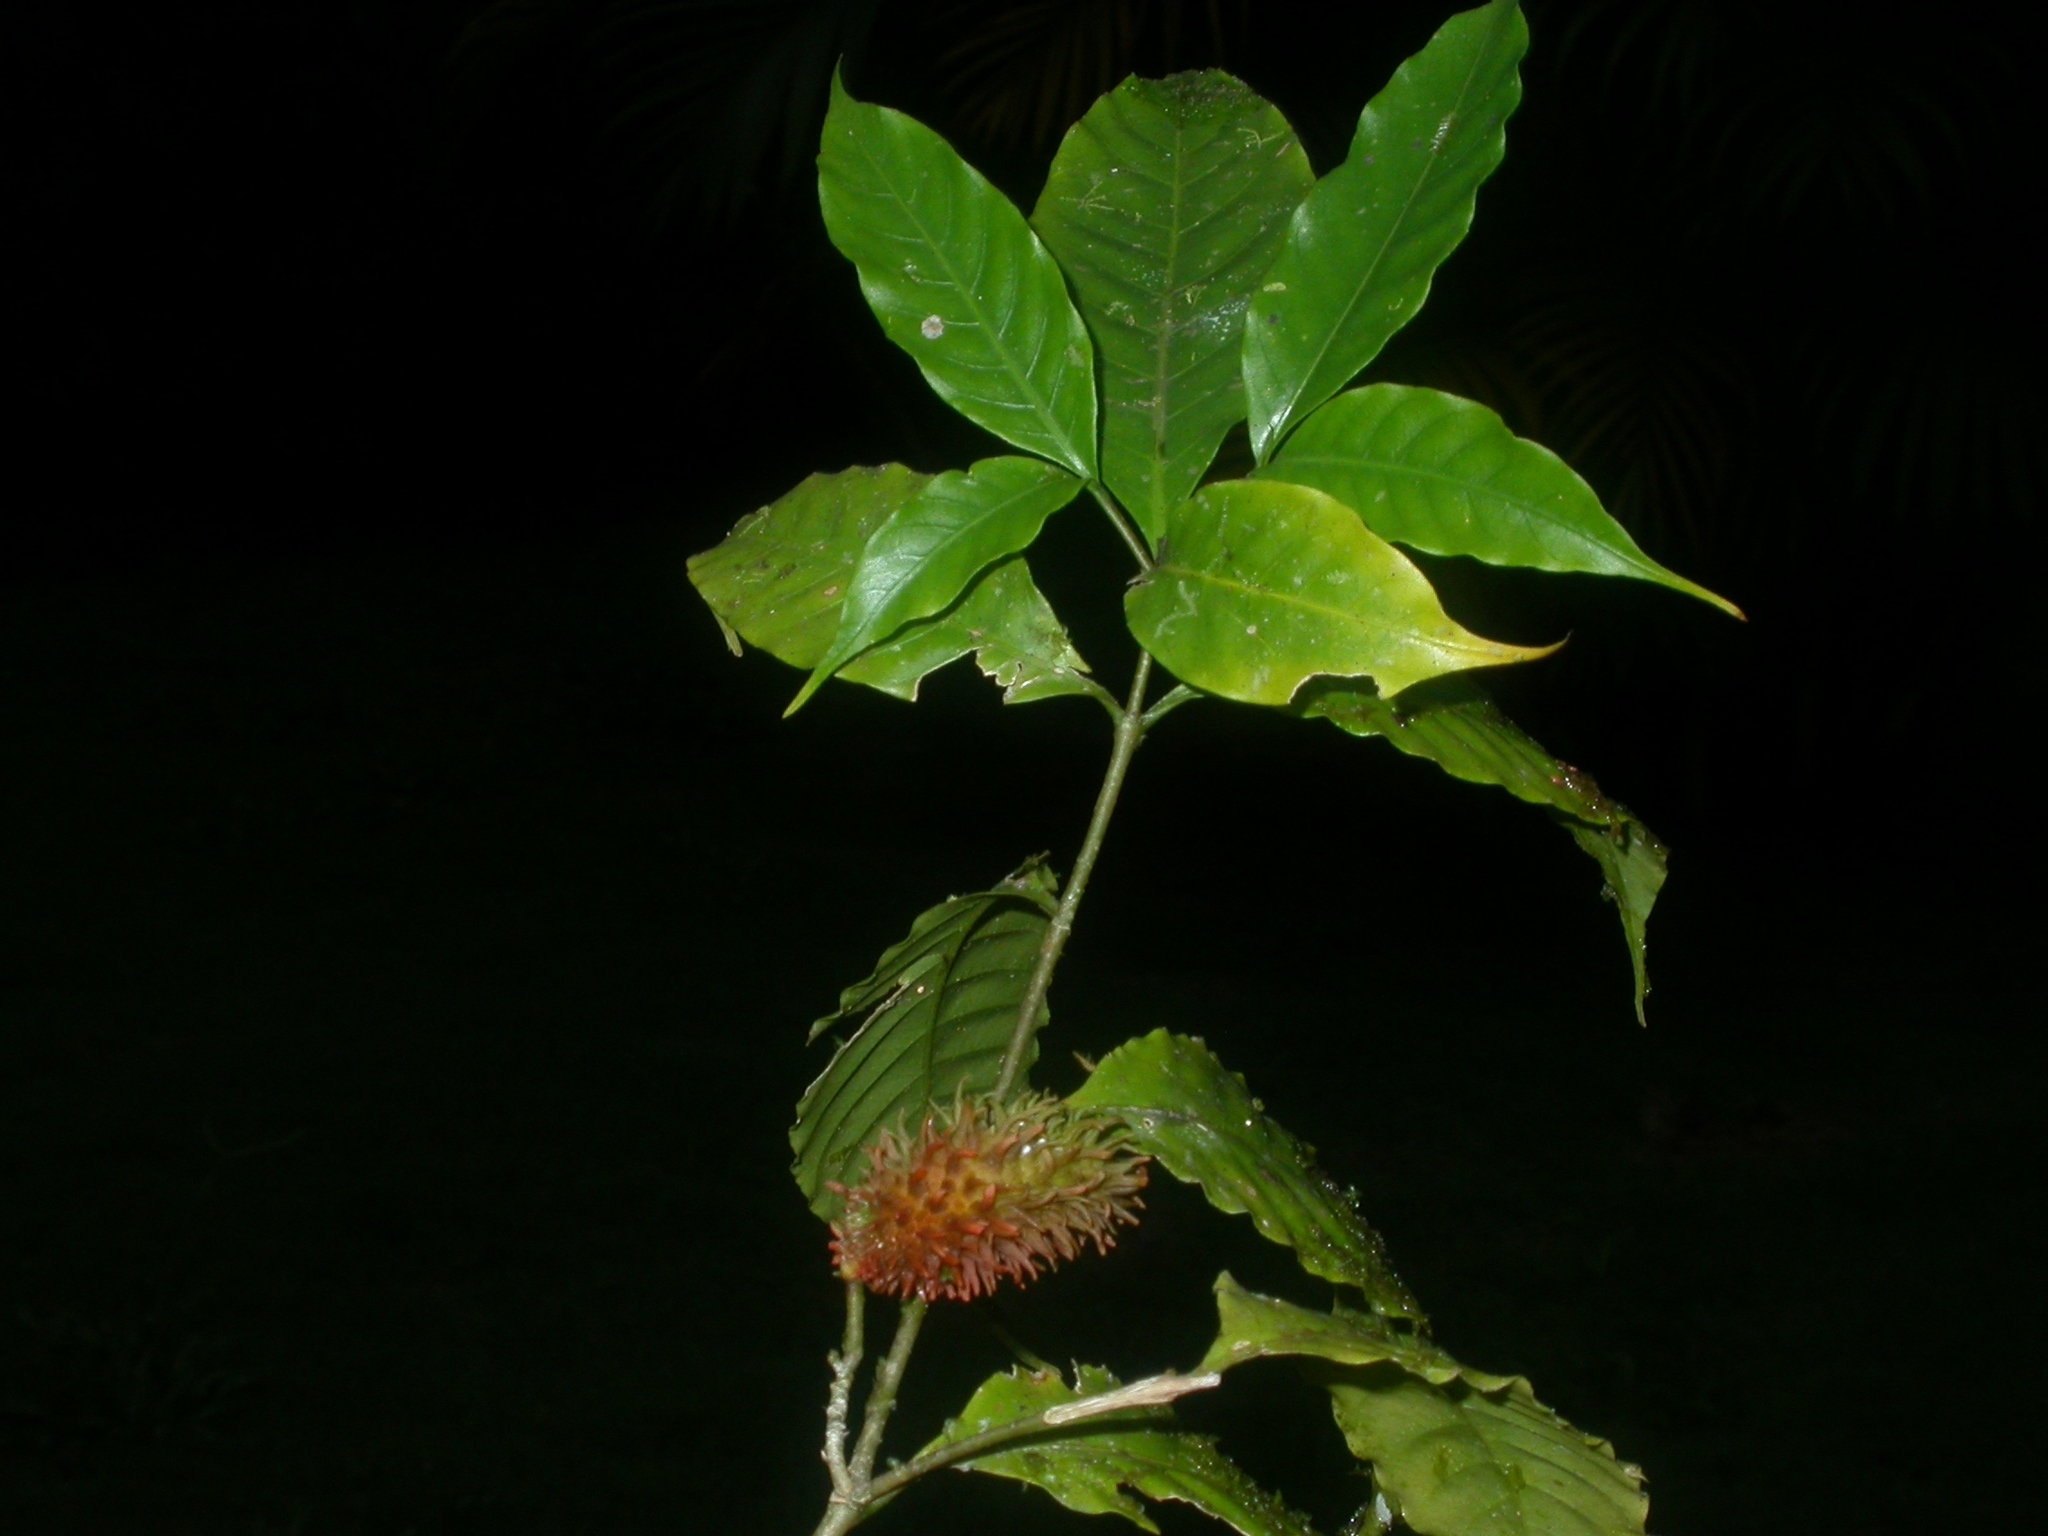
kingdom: Plantae
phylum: Tracheophyta
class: Magnoliopsida
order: Gentianales
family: Apocynaceae
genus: Tabernaemontana
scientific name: Tabernaemontana heterophylla
